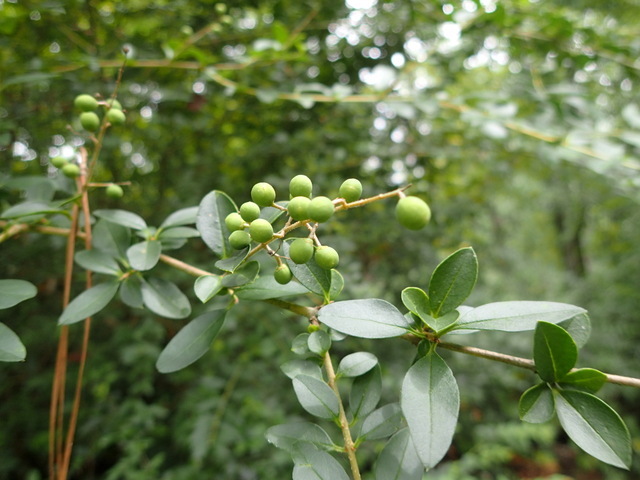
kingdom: Plantae
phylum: Tracheophyta
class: Magnoliopsida
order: Lamiales
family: Oleaceae
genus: Ligustrum
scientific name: Ligustrum sinense
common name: Chinese privet
